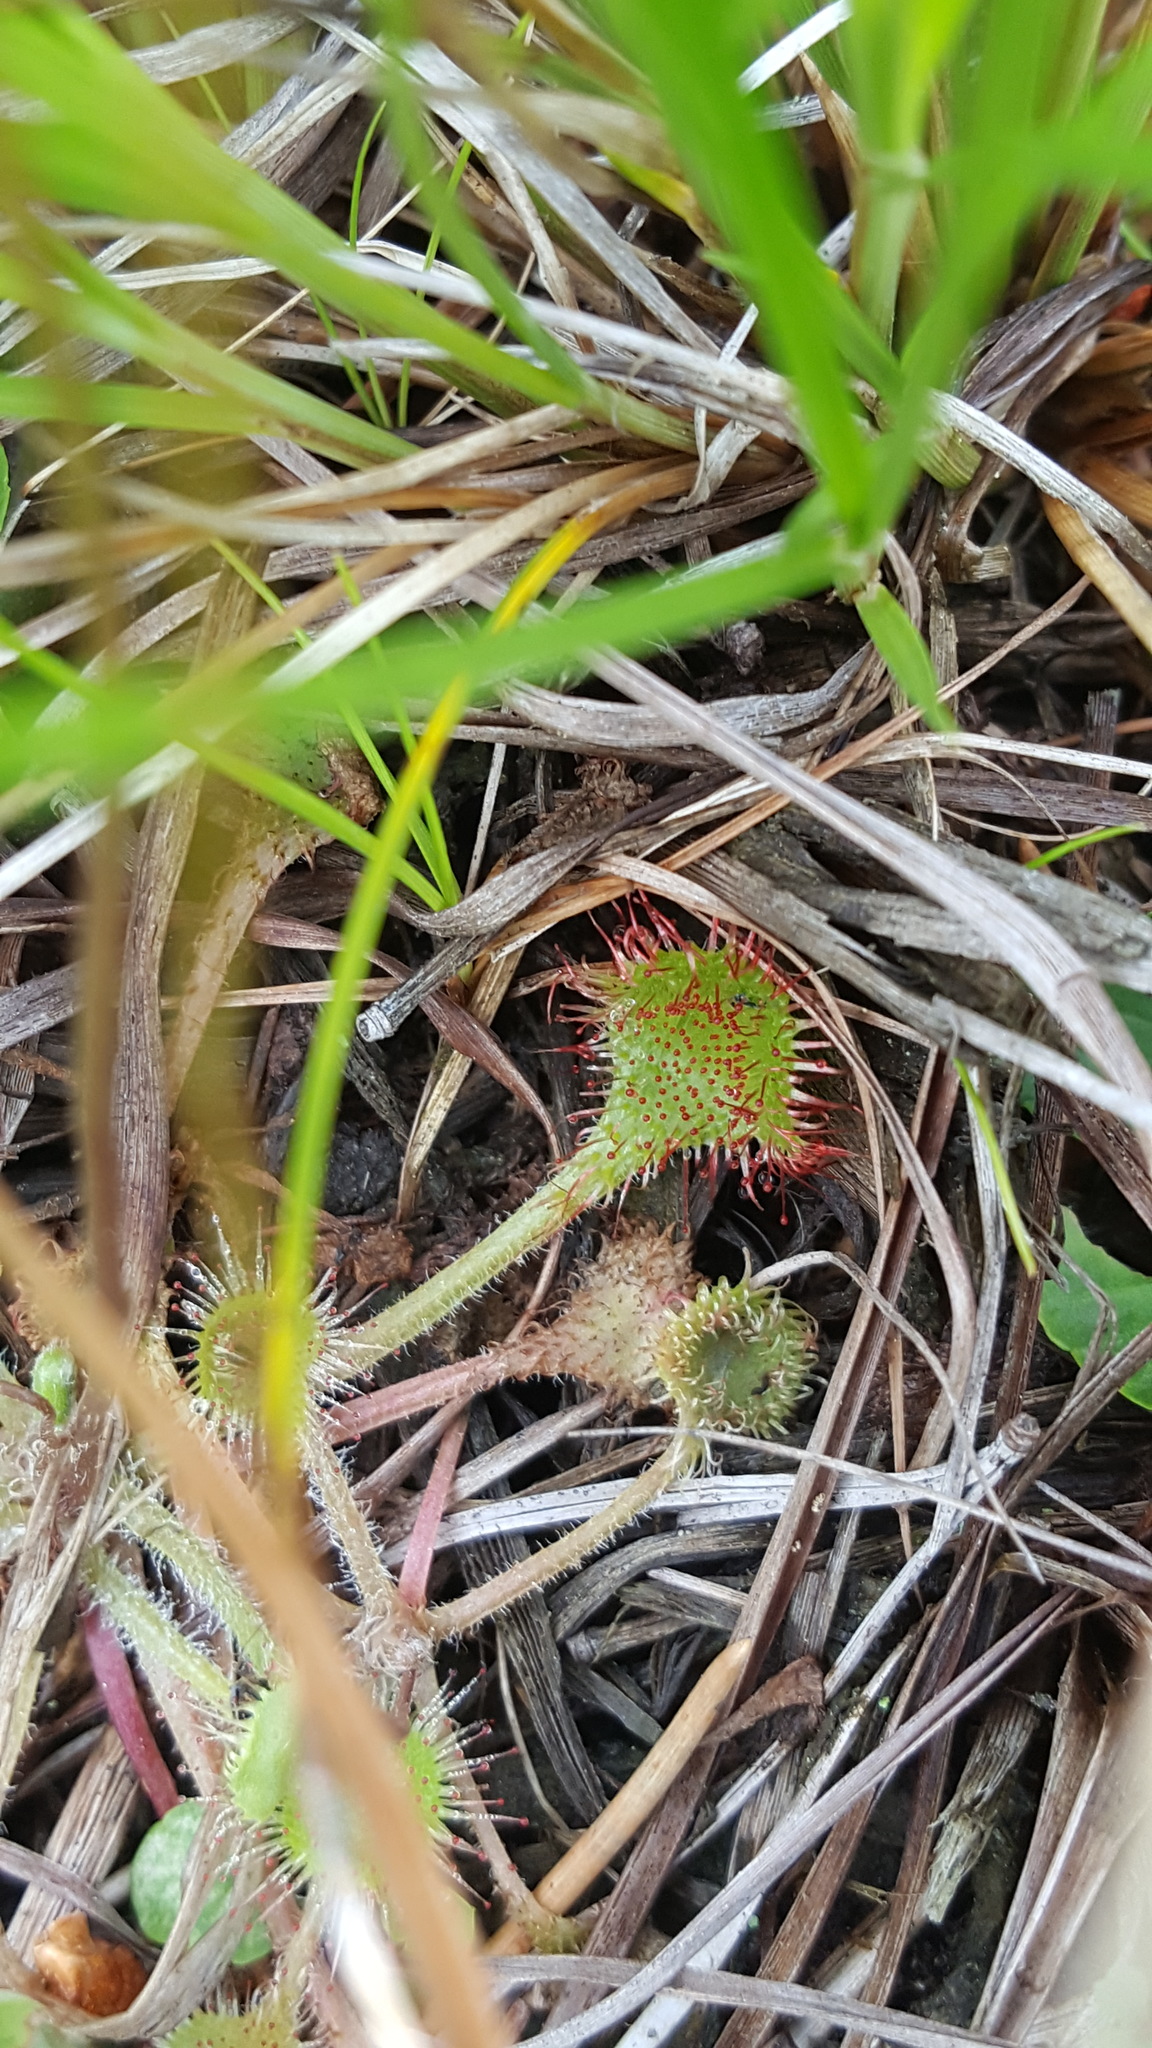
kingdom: Plantae
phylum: Tracheophyta
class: Magnoliopsida
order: Caryophyllales
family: Droseraceae
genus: Drosera
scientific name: Drosera rotundifolia
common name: Round-leaved sundew
